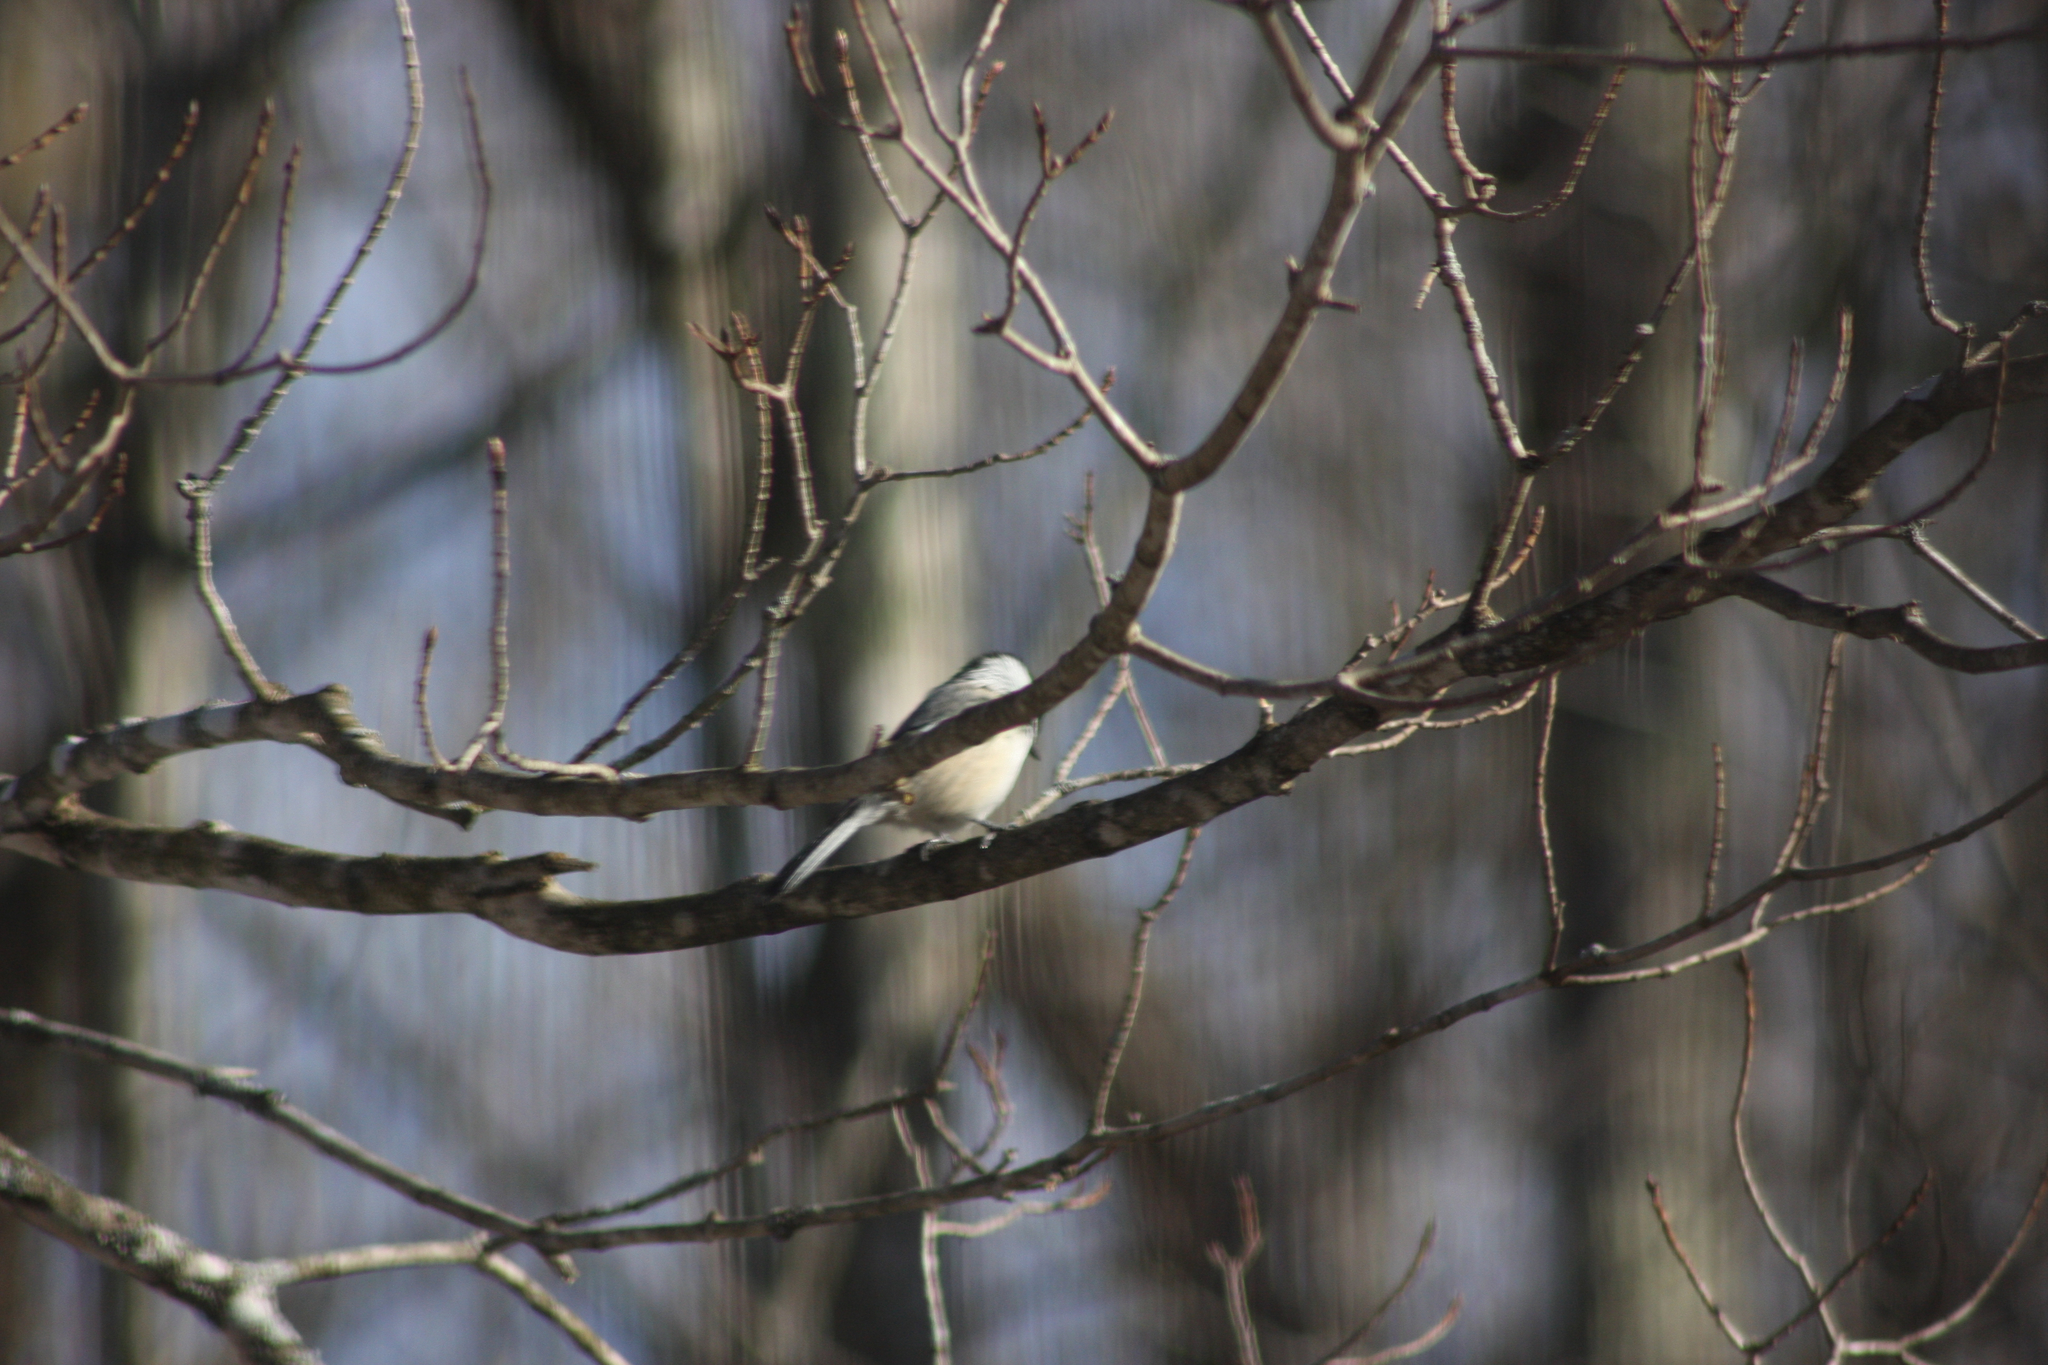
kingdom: Animalia
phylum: Chordata
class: Aves
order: Passeriformes
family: Paridae
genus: Poecile
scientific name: Poecile atricapillus
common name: Black-capped chickadee
